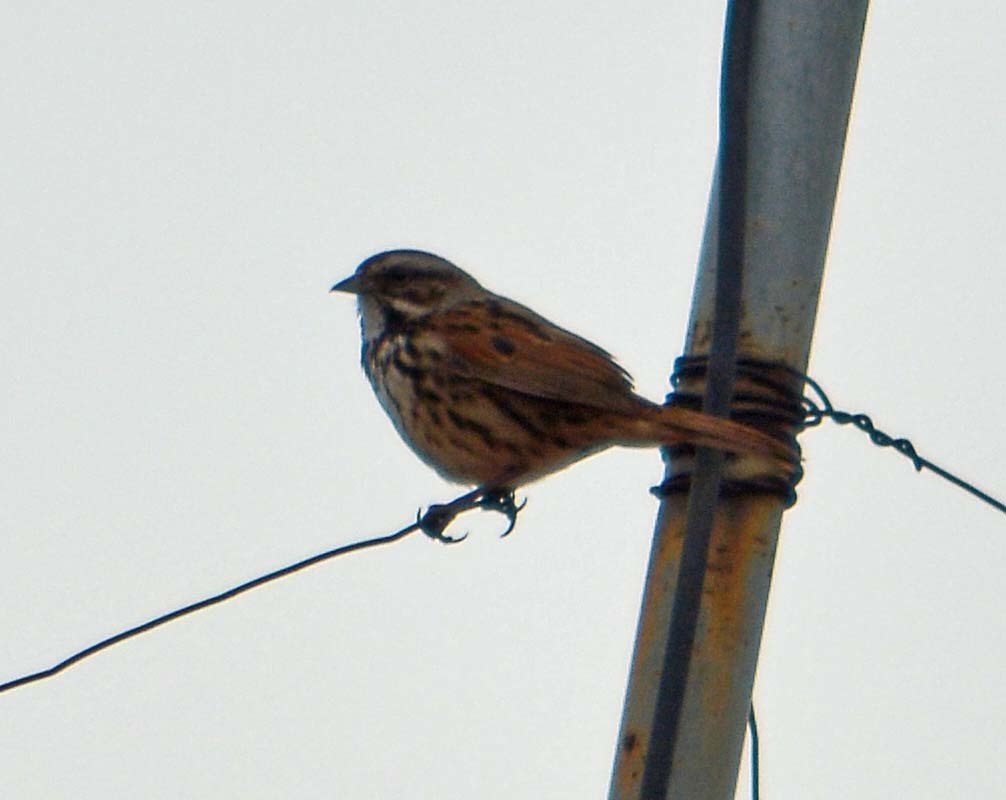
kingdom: Animalia
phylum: Chordata
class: Aves
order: Passeriformes
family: Passerellidae
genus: Melospiza
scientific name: Melospiza melodia
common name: Song sparrow
